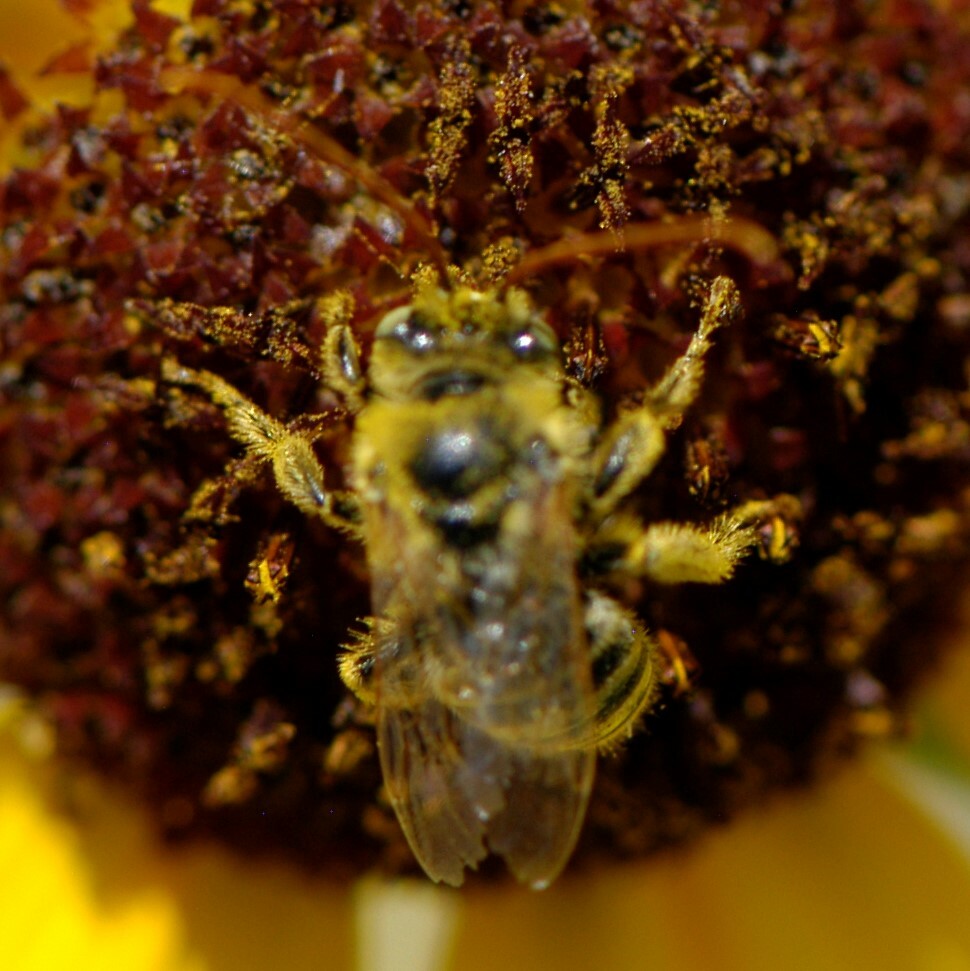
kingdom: Animalia
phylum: Arthropoda
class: Insecta
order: Hymenoptera
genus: Eumelissodes
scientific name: Eumelissodes
